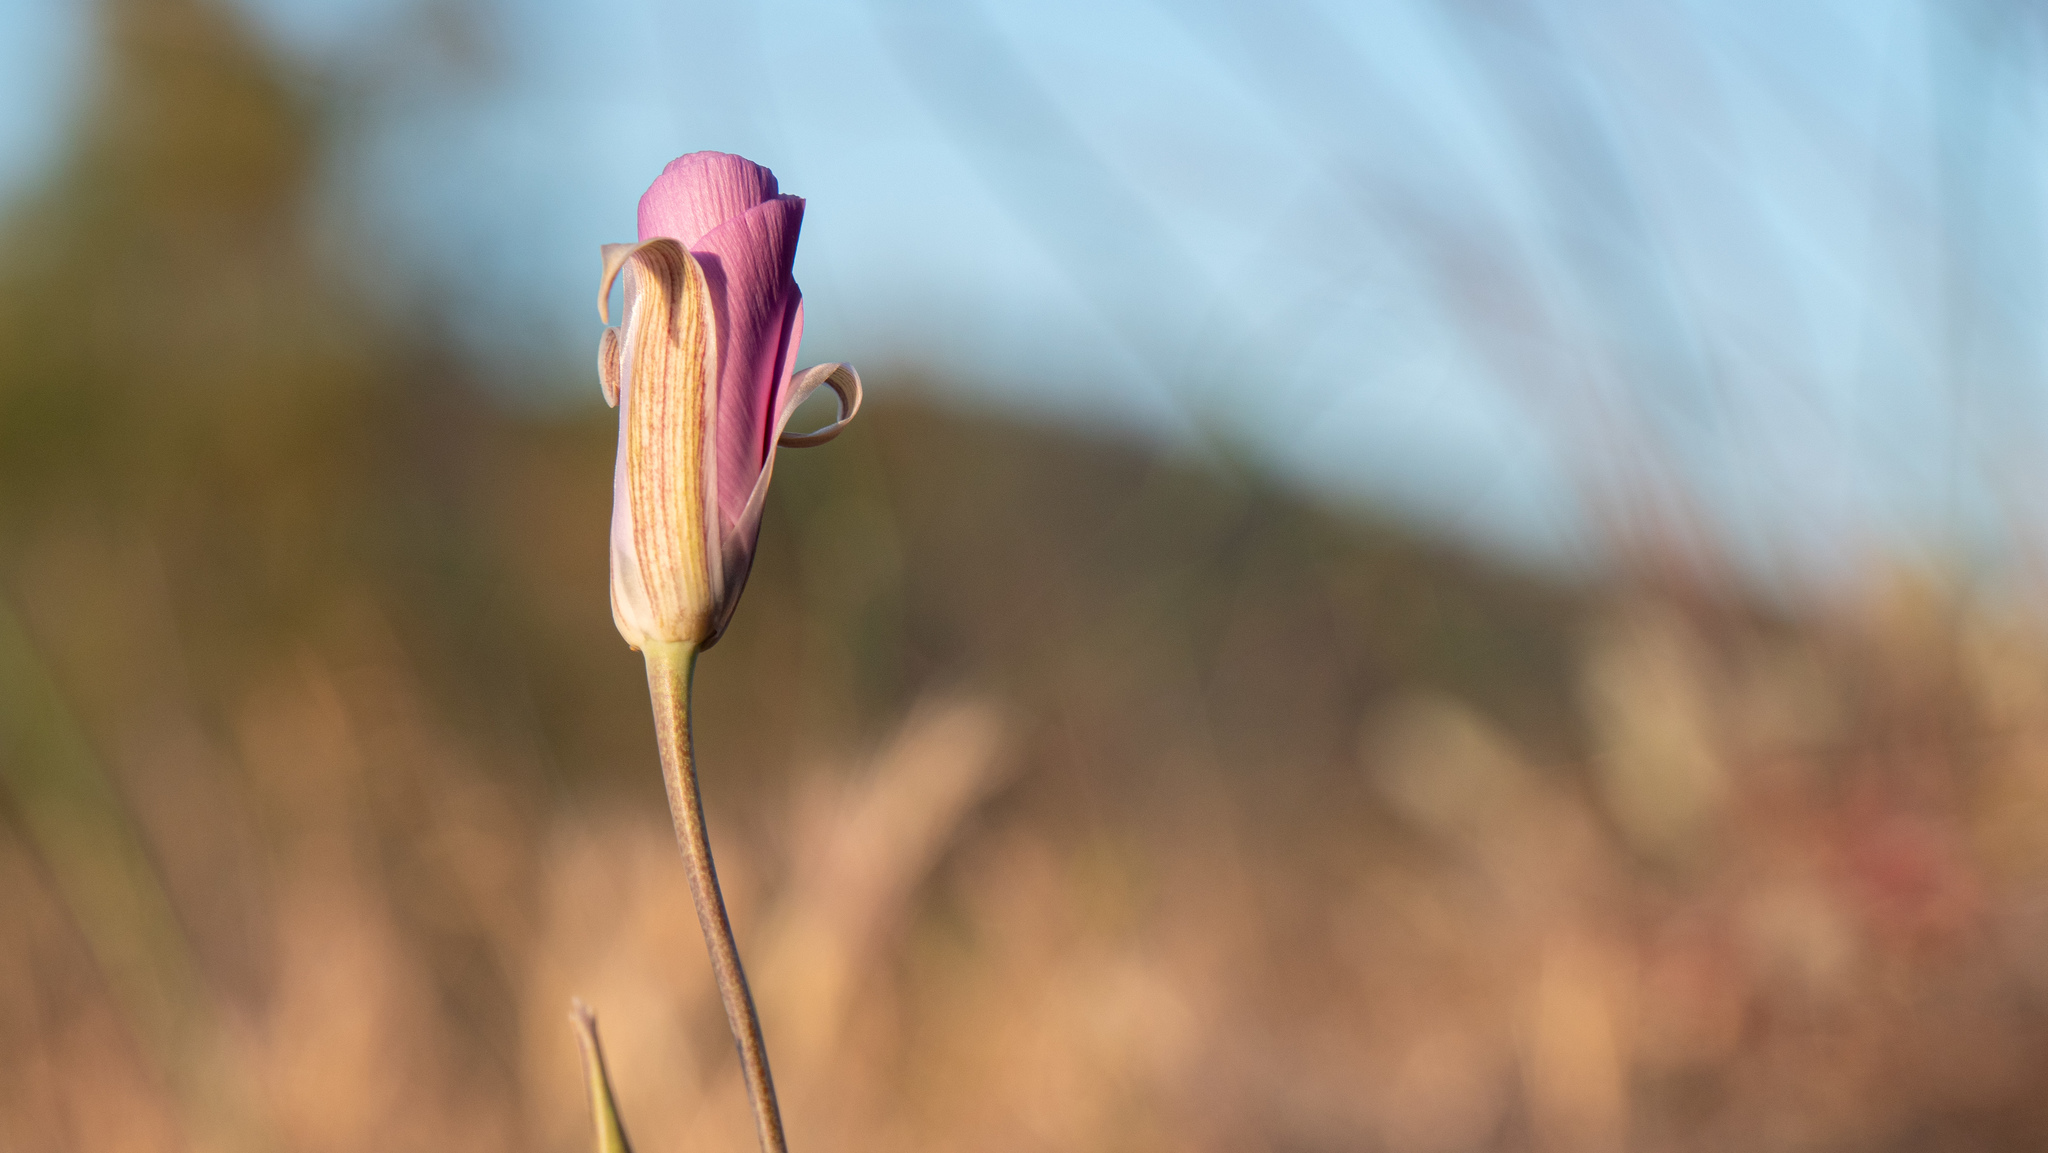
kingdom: Plantae
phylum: Tracheophyta
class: Liliopsida
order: Liliales
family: Liliaceae
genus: Calochortus
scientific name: Calochortus splendens
